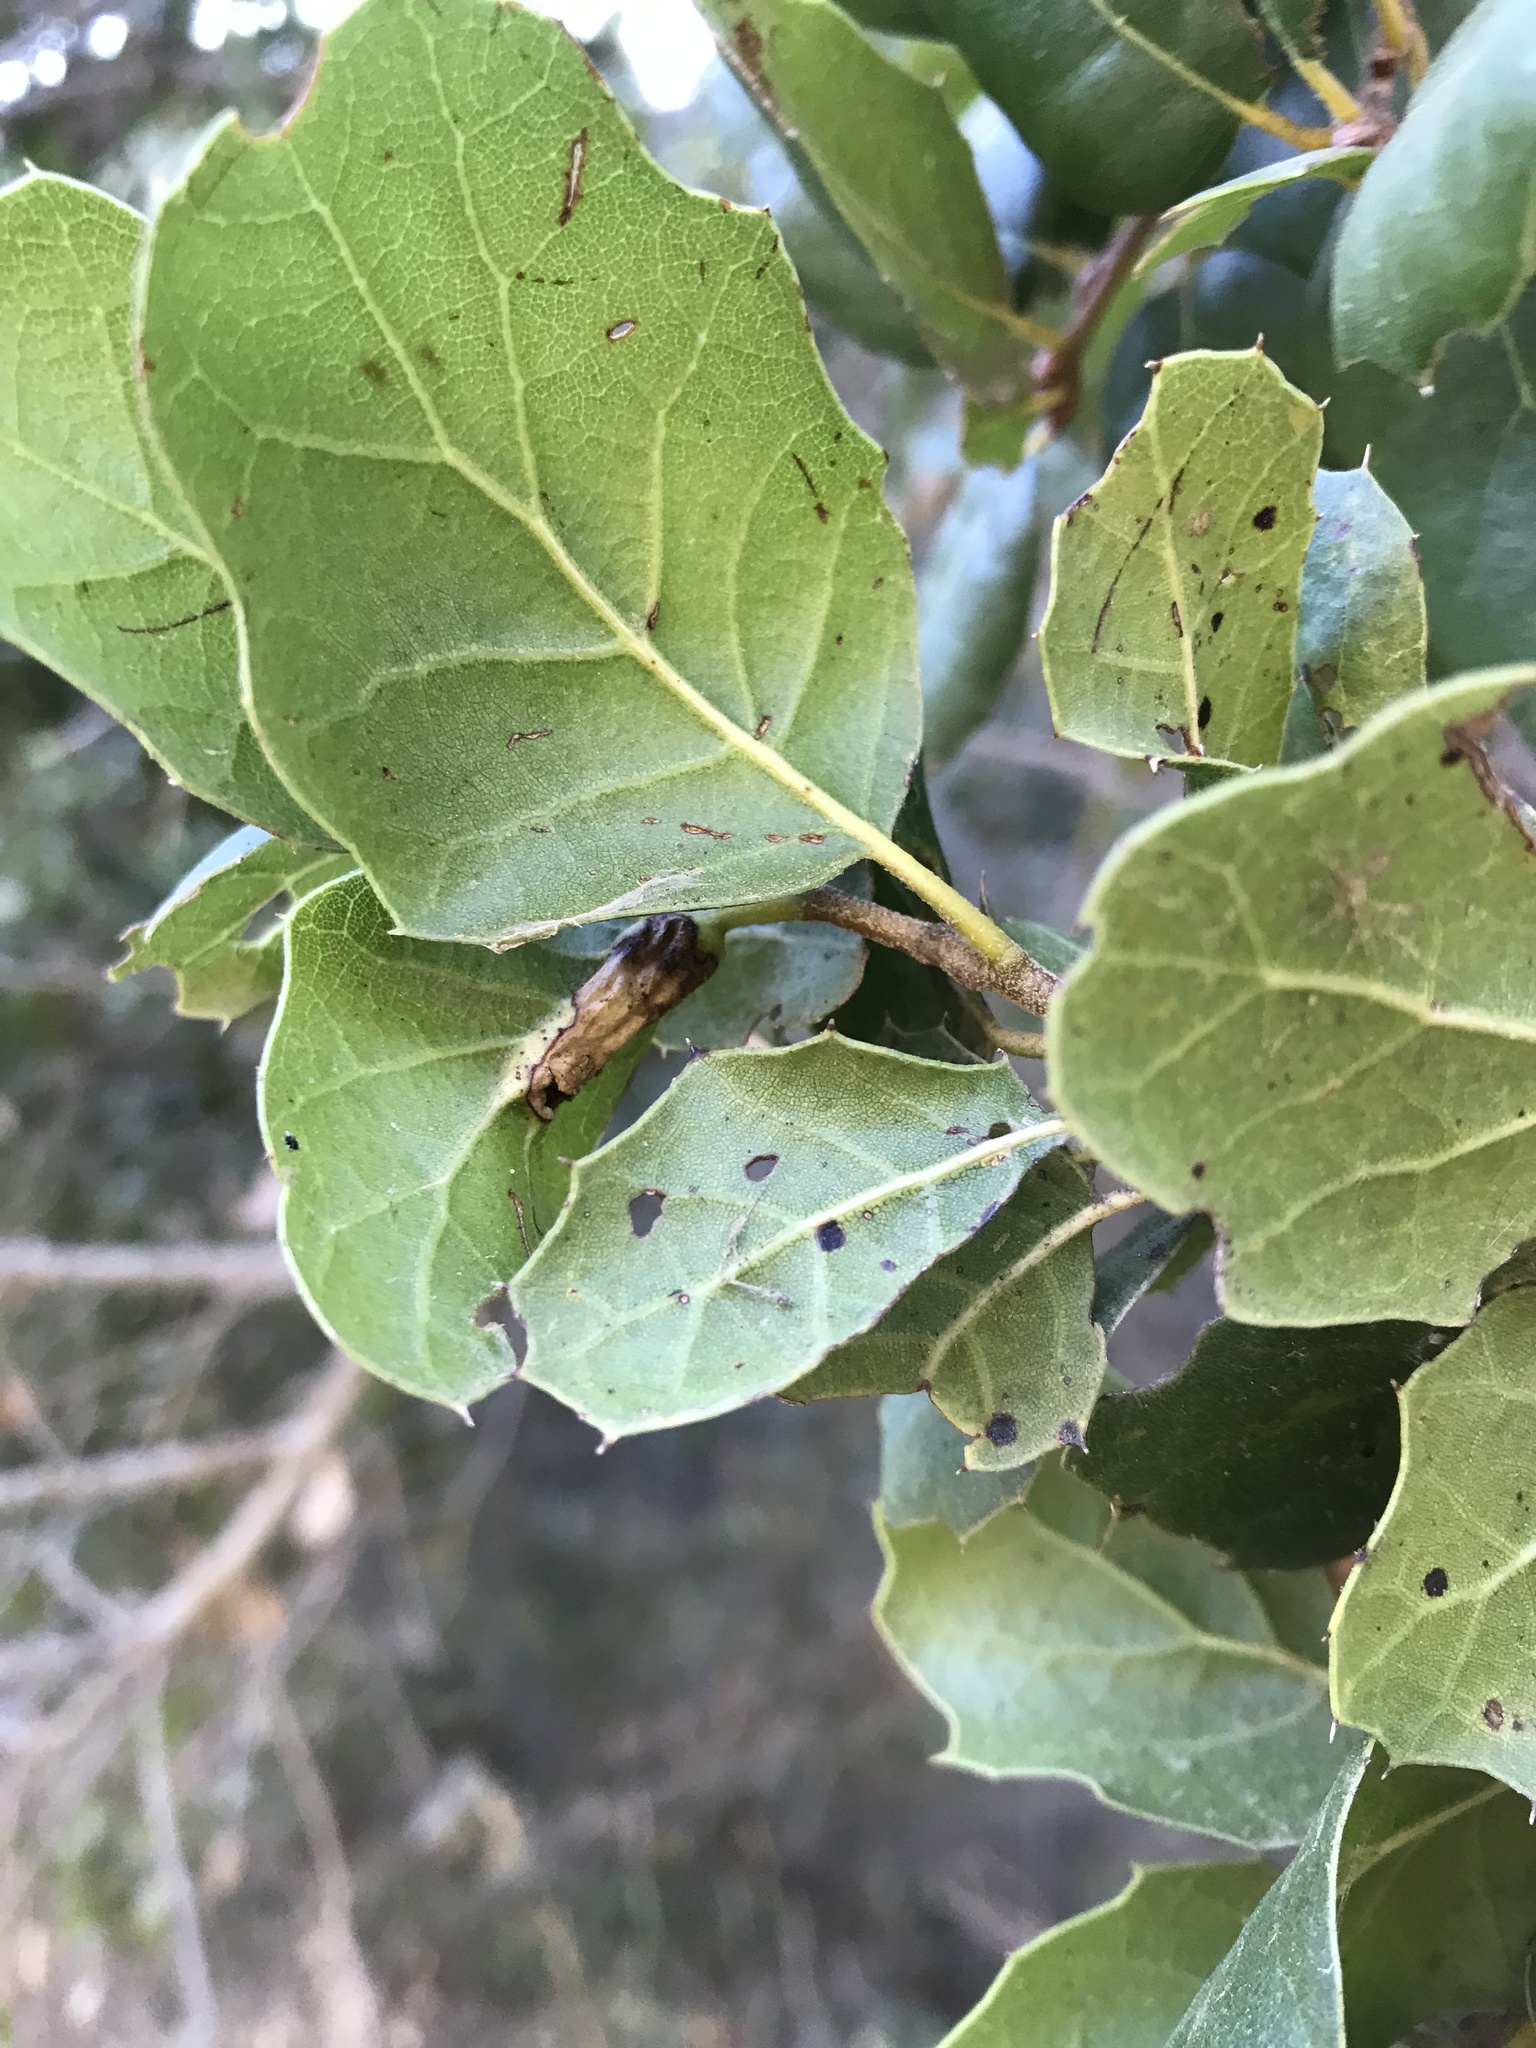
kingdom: Animalia
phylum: Arthropoda
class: Insecta
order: Hymenoptera
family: Cynipidae
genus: Melikaiella
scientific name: Melikaiella
